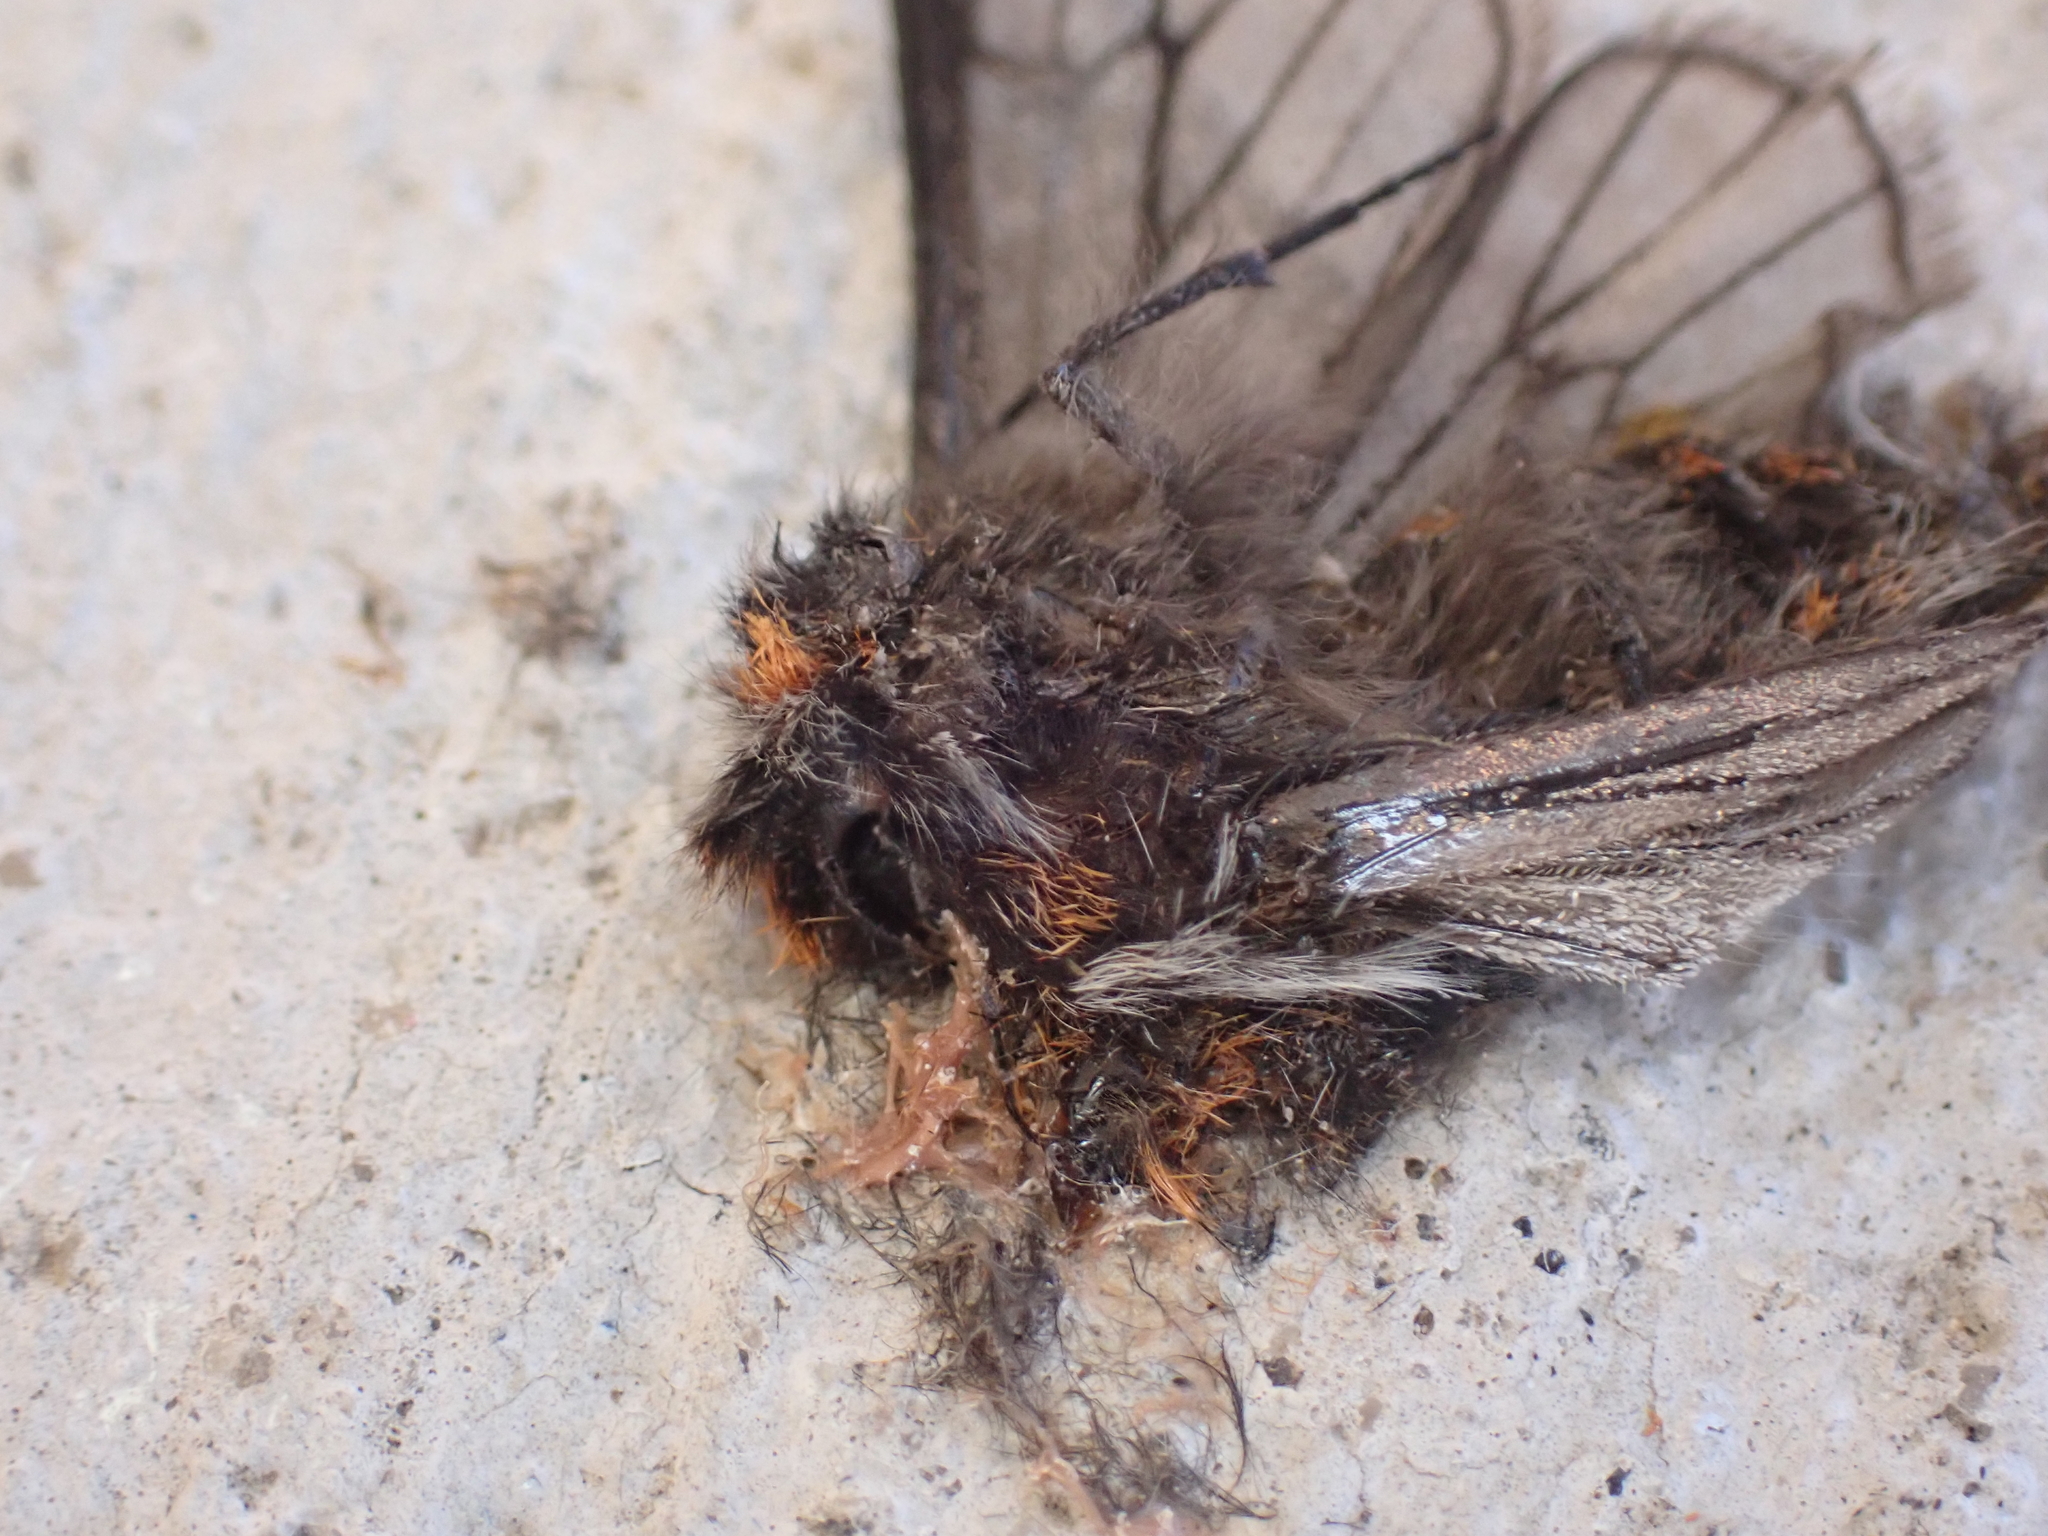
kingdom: Animalia
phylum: Arthropoda
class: Insecta
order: Lepidoptera
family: Geometridae
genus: Lycia
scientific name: Lycia rachelae
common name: Twilight moth
